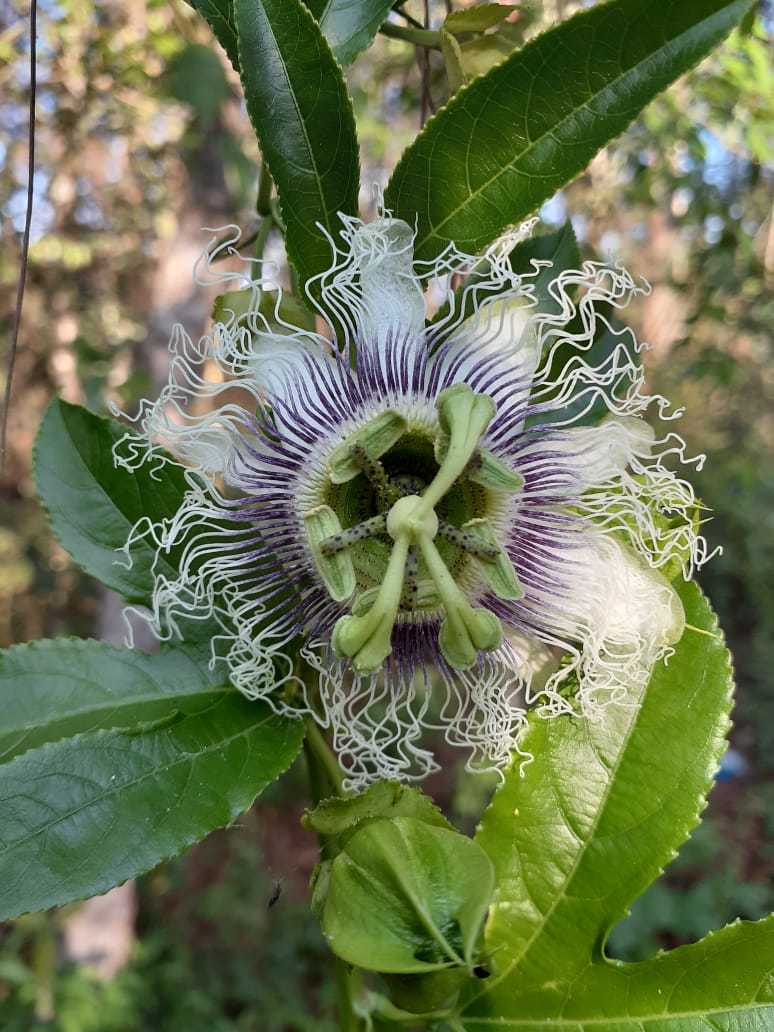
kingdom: Plantae
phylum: Tracheophyta
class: Magnoliopsida
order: Malpighiales
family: Passifloraceae
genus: Passiflora
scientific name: Passiflora edulis
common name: Purple granadilla
